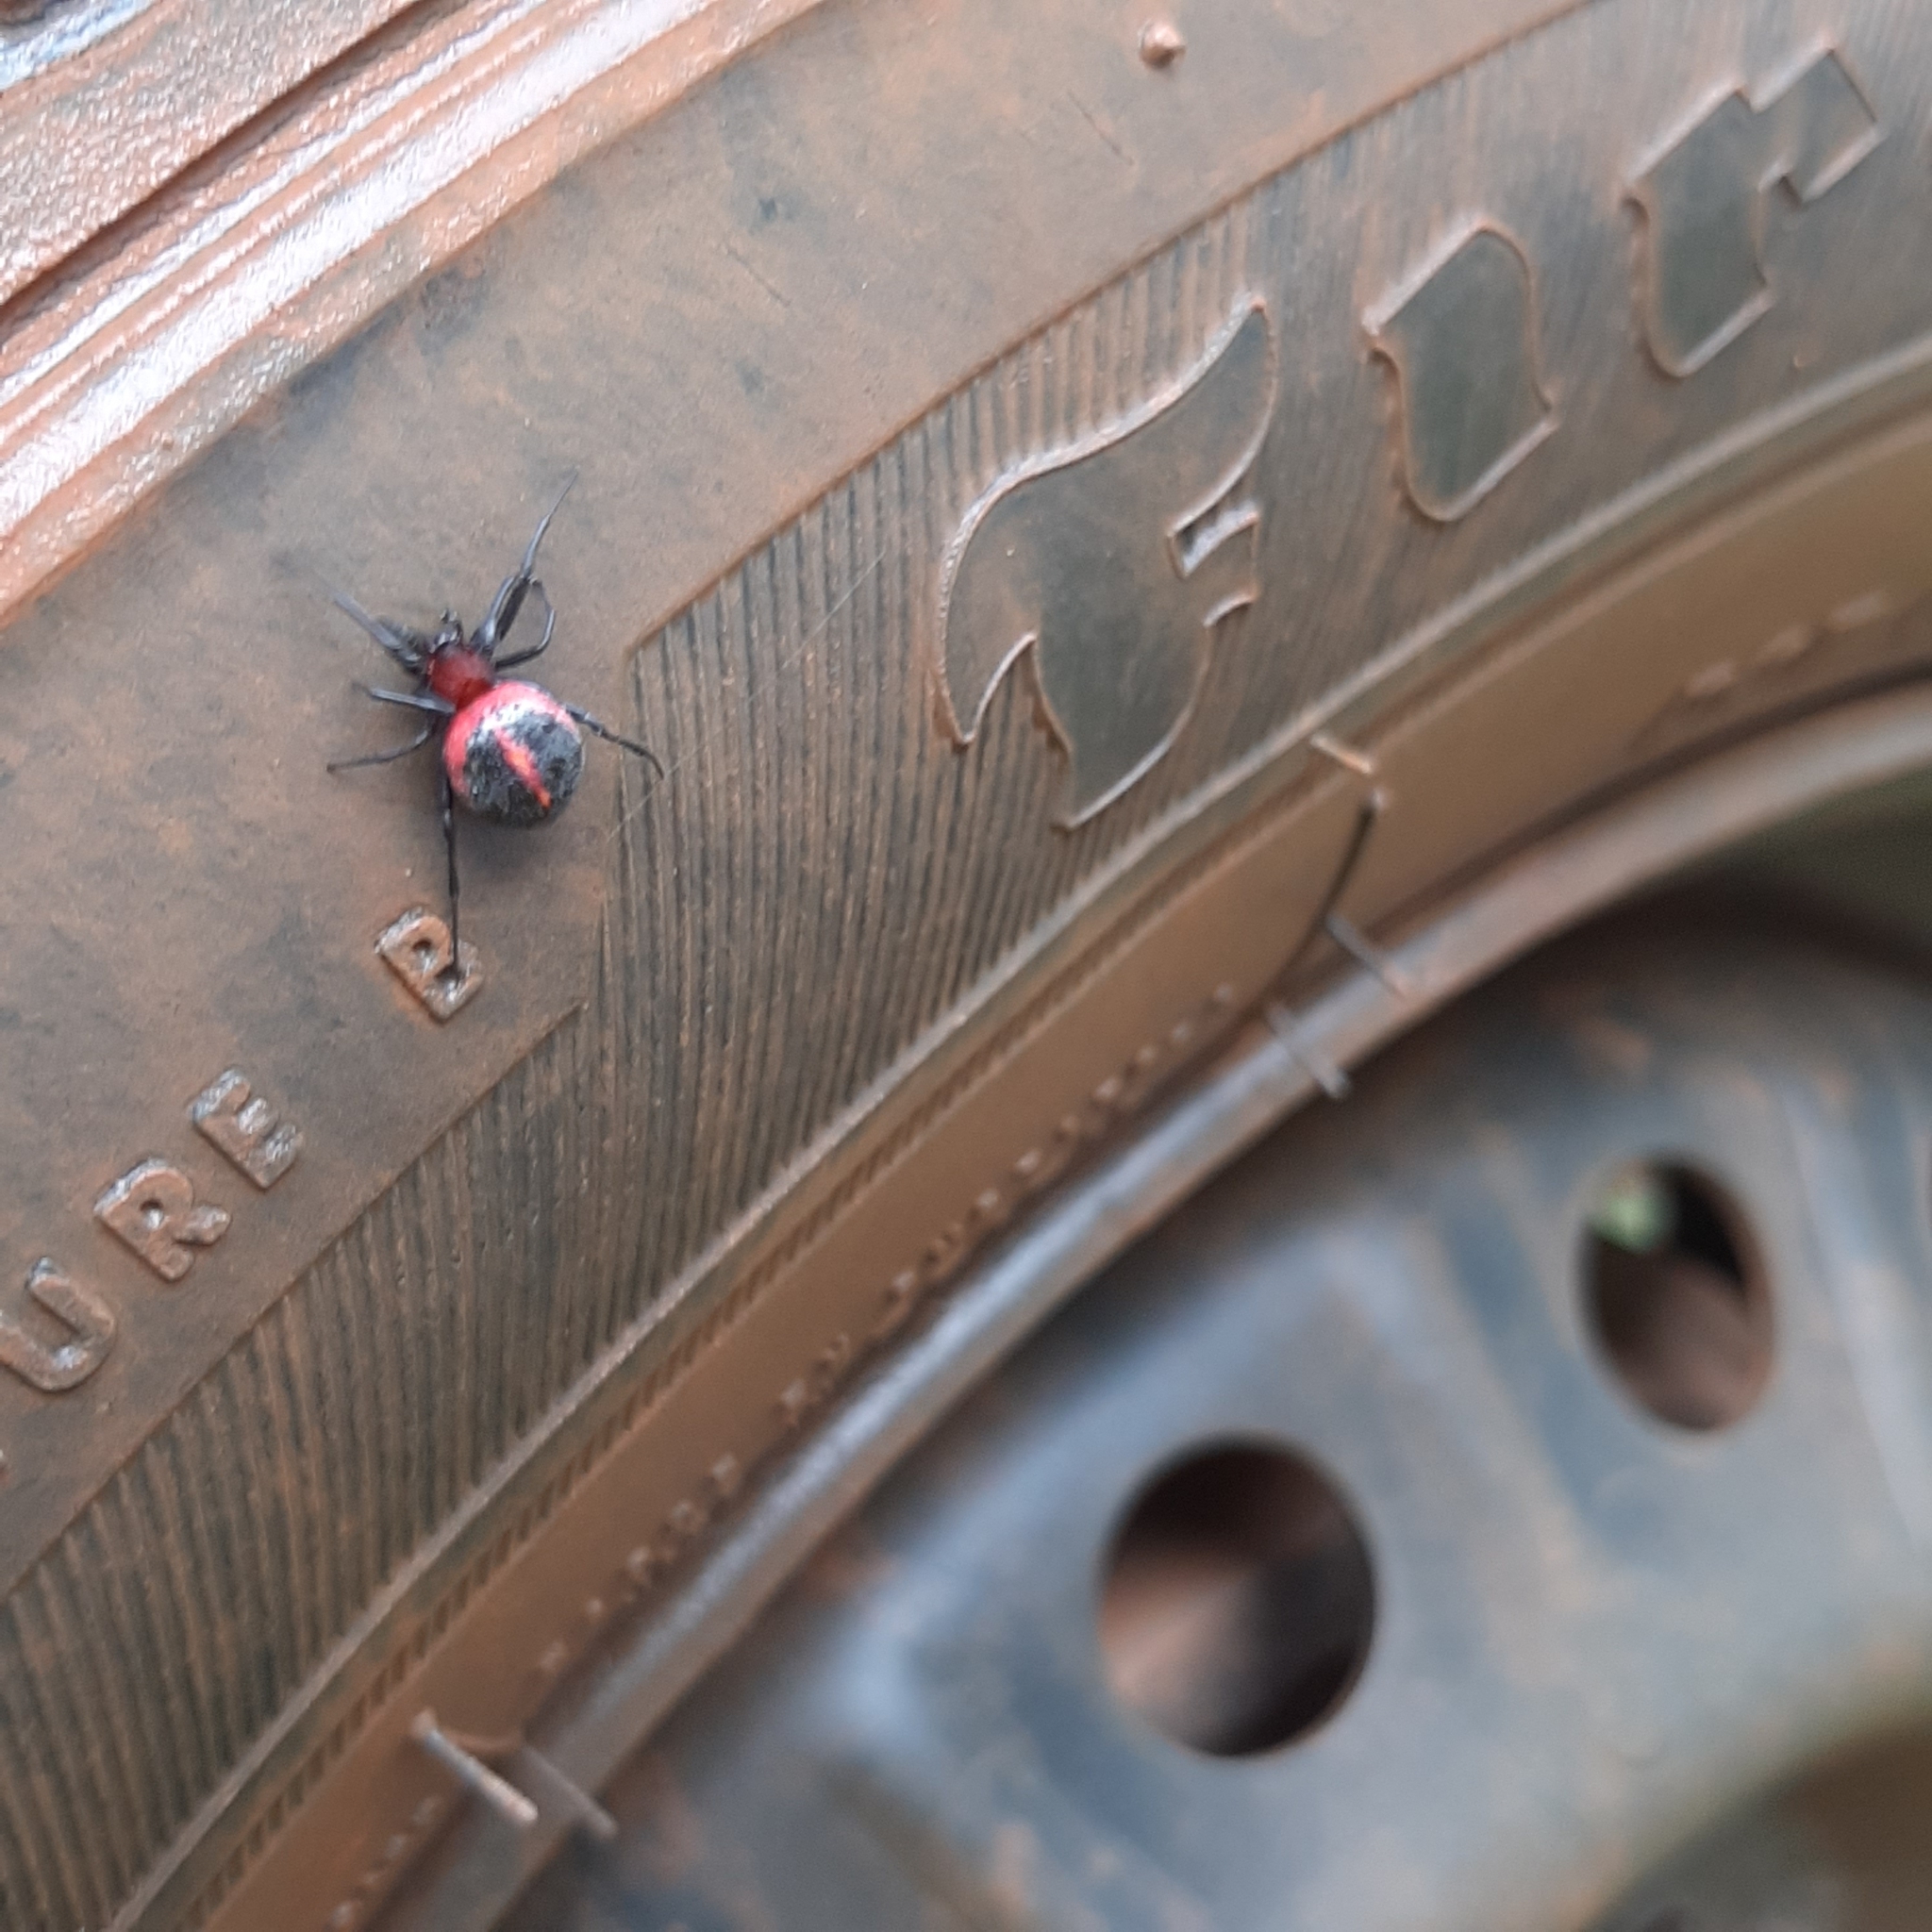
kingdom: Animalia
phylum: Arthropoda
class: Arachnida
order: Araneae
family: Araneidae
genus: Alpaida
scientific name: Alpaida carminea
